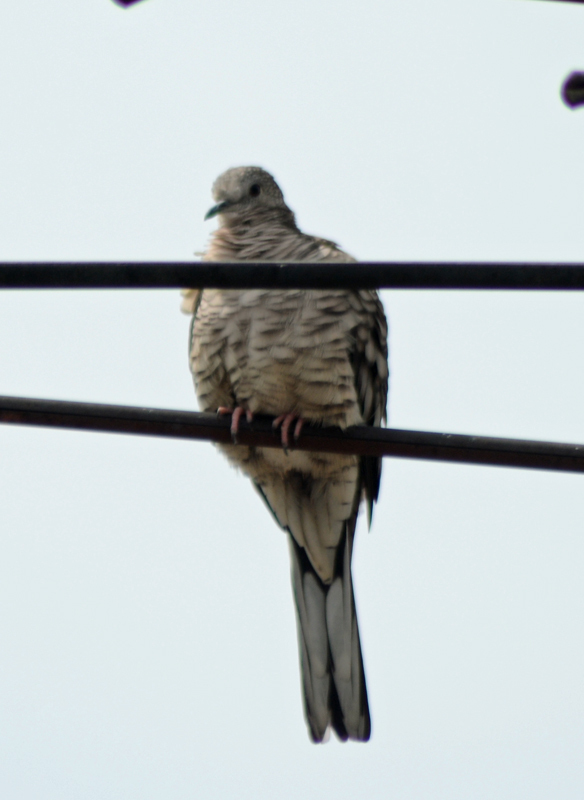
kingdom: Animalia
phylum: Chordata
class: Aves
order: Columbiformes
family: Columbidae
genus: Columbina
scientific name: Columbina inca
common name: Inca dove
